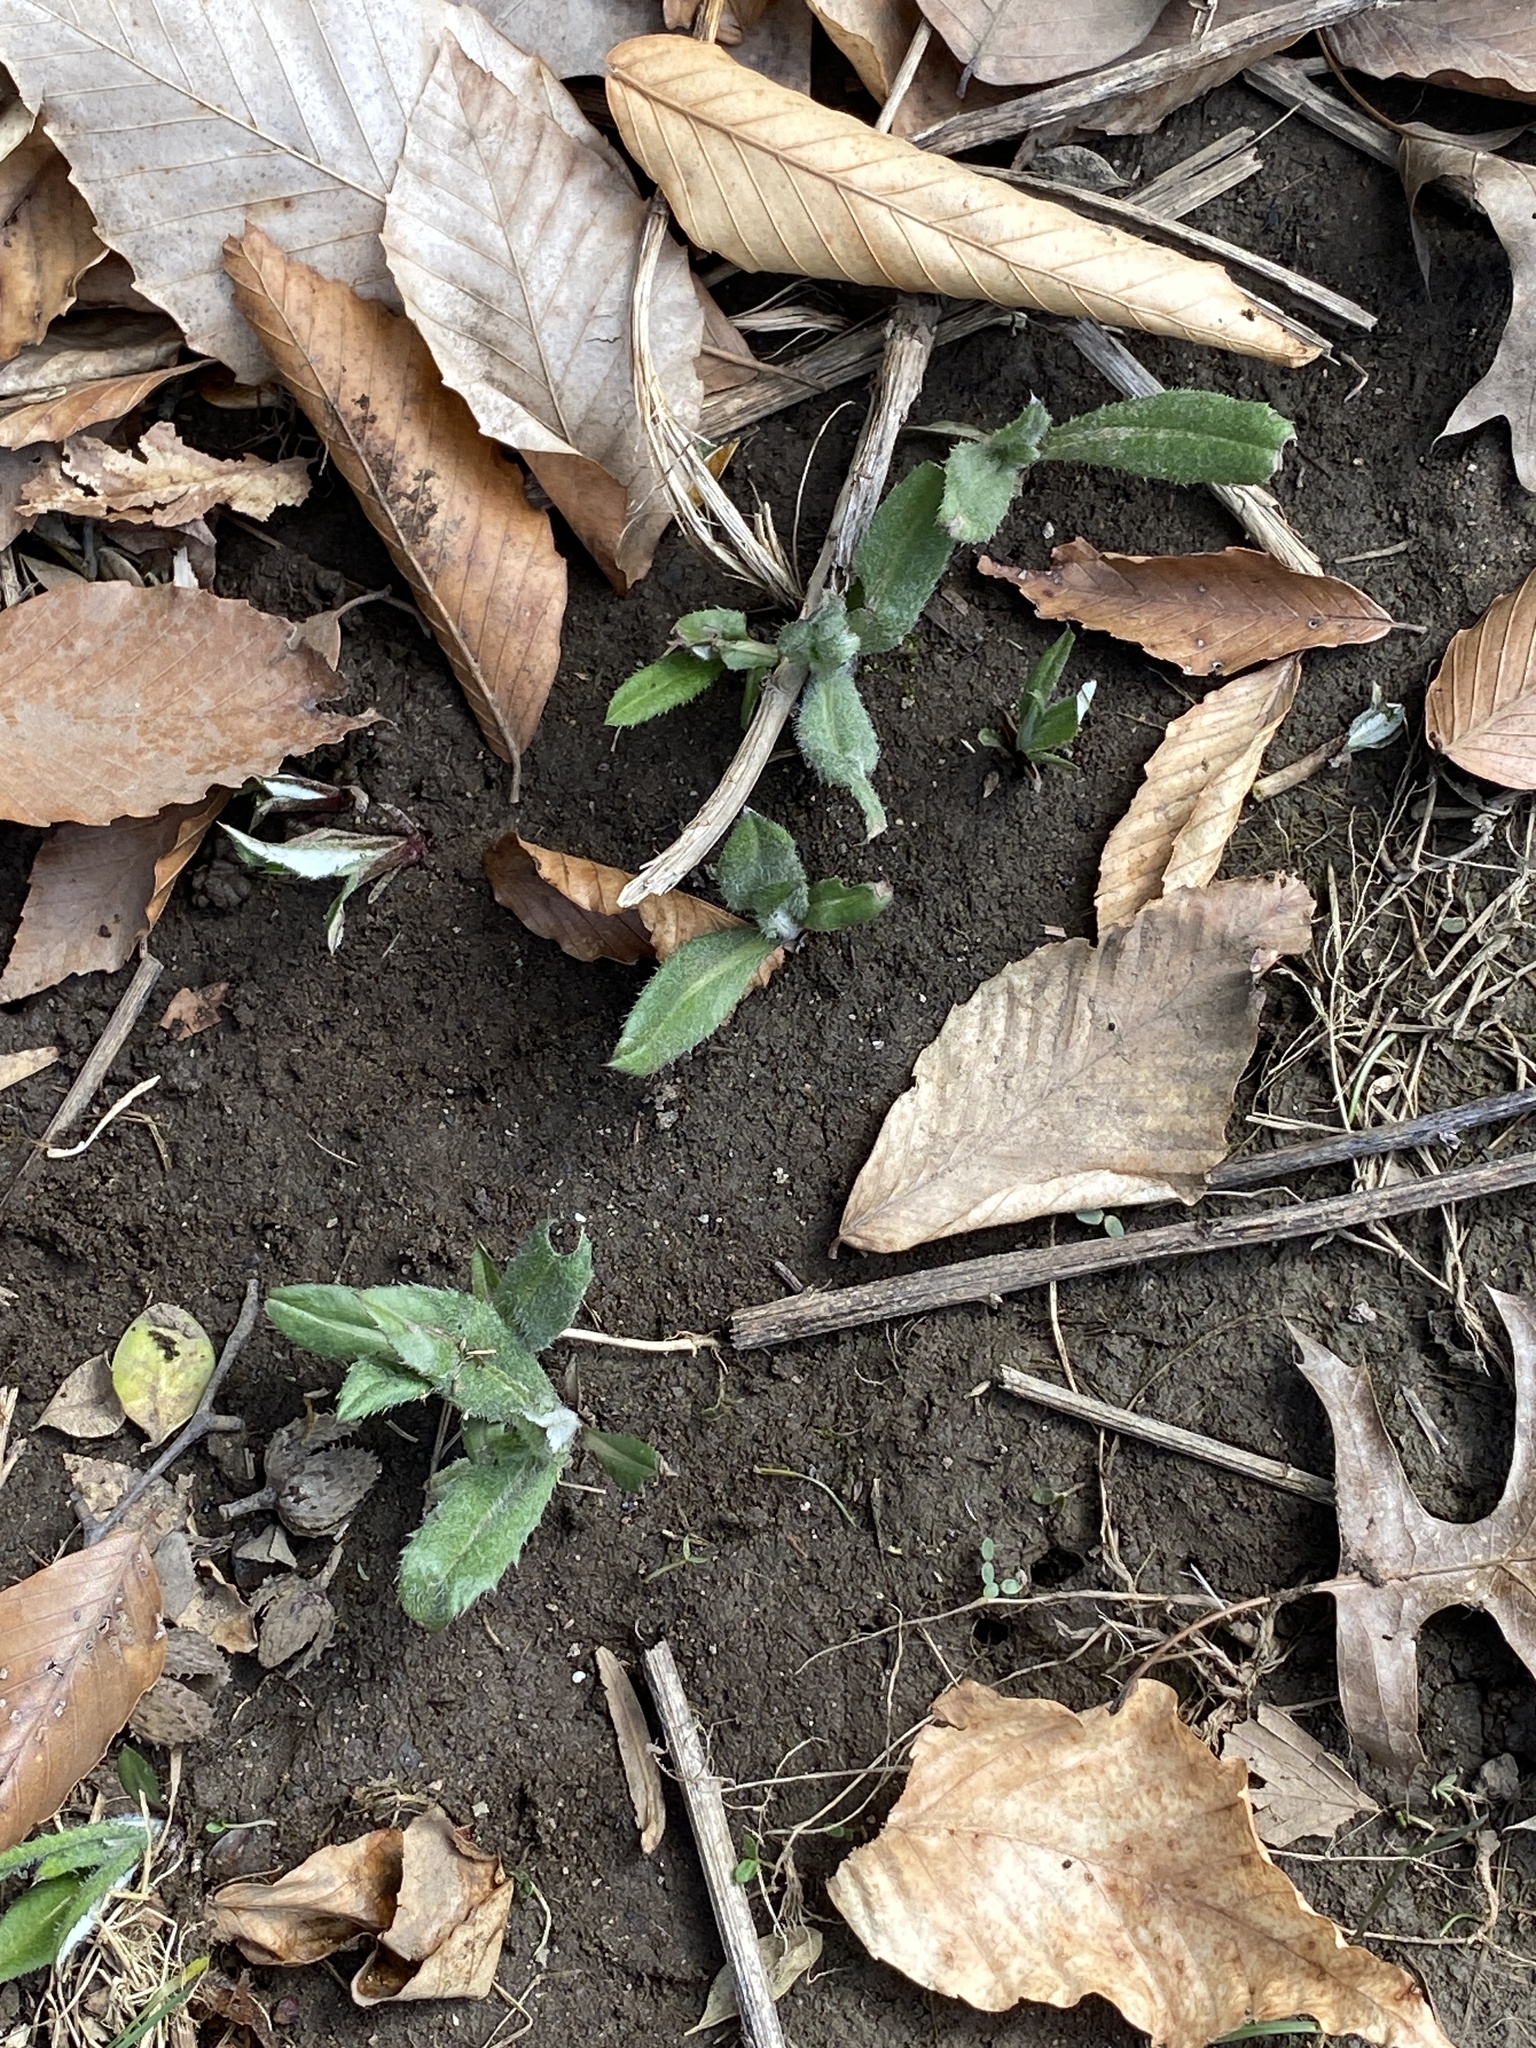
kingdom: Plantae
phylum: Tracheophyta
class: Magnoliopsida
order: Asterales
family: Asteraceae
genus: Cirsium
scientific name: Cirsium arvense
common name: Creeping thistle
